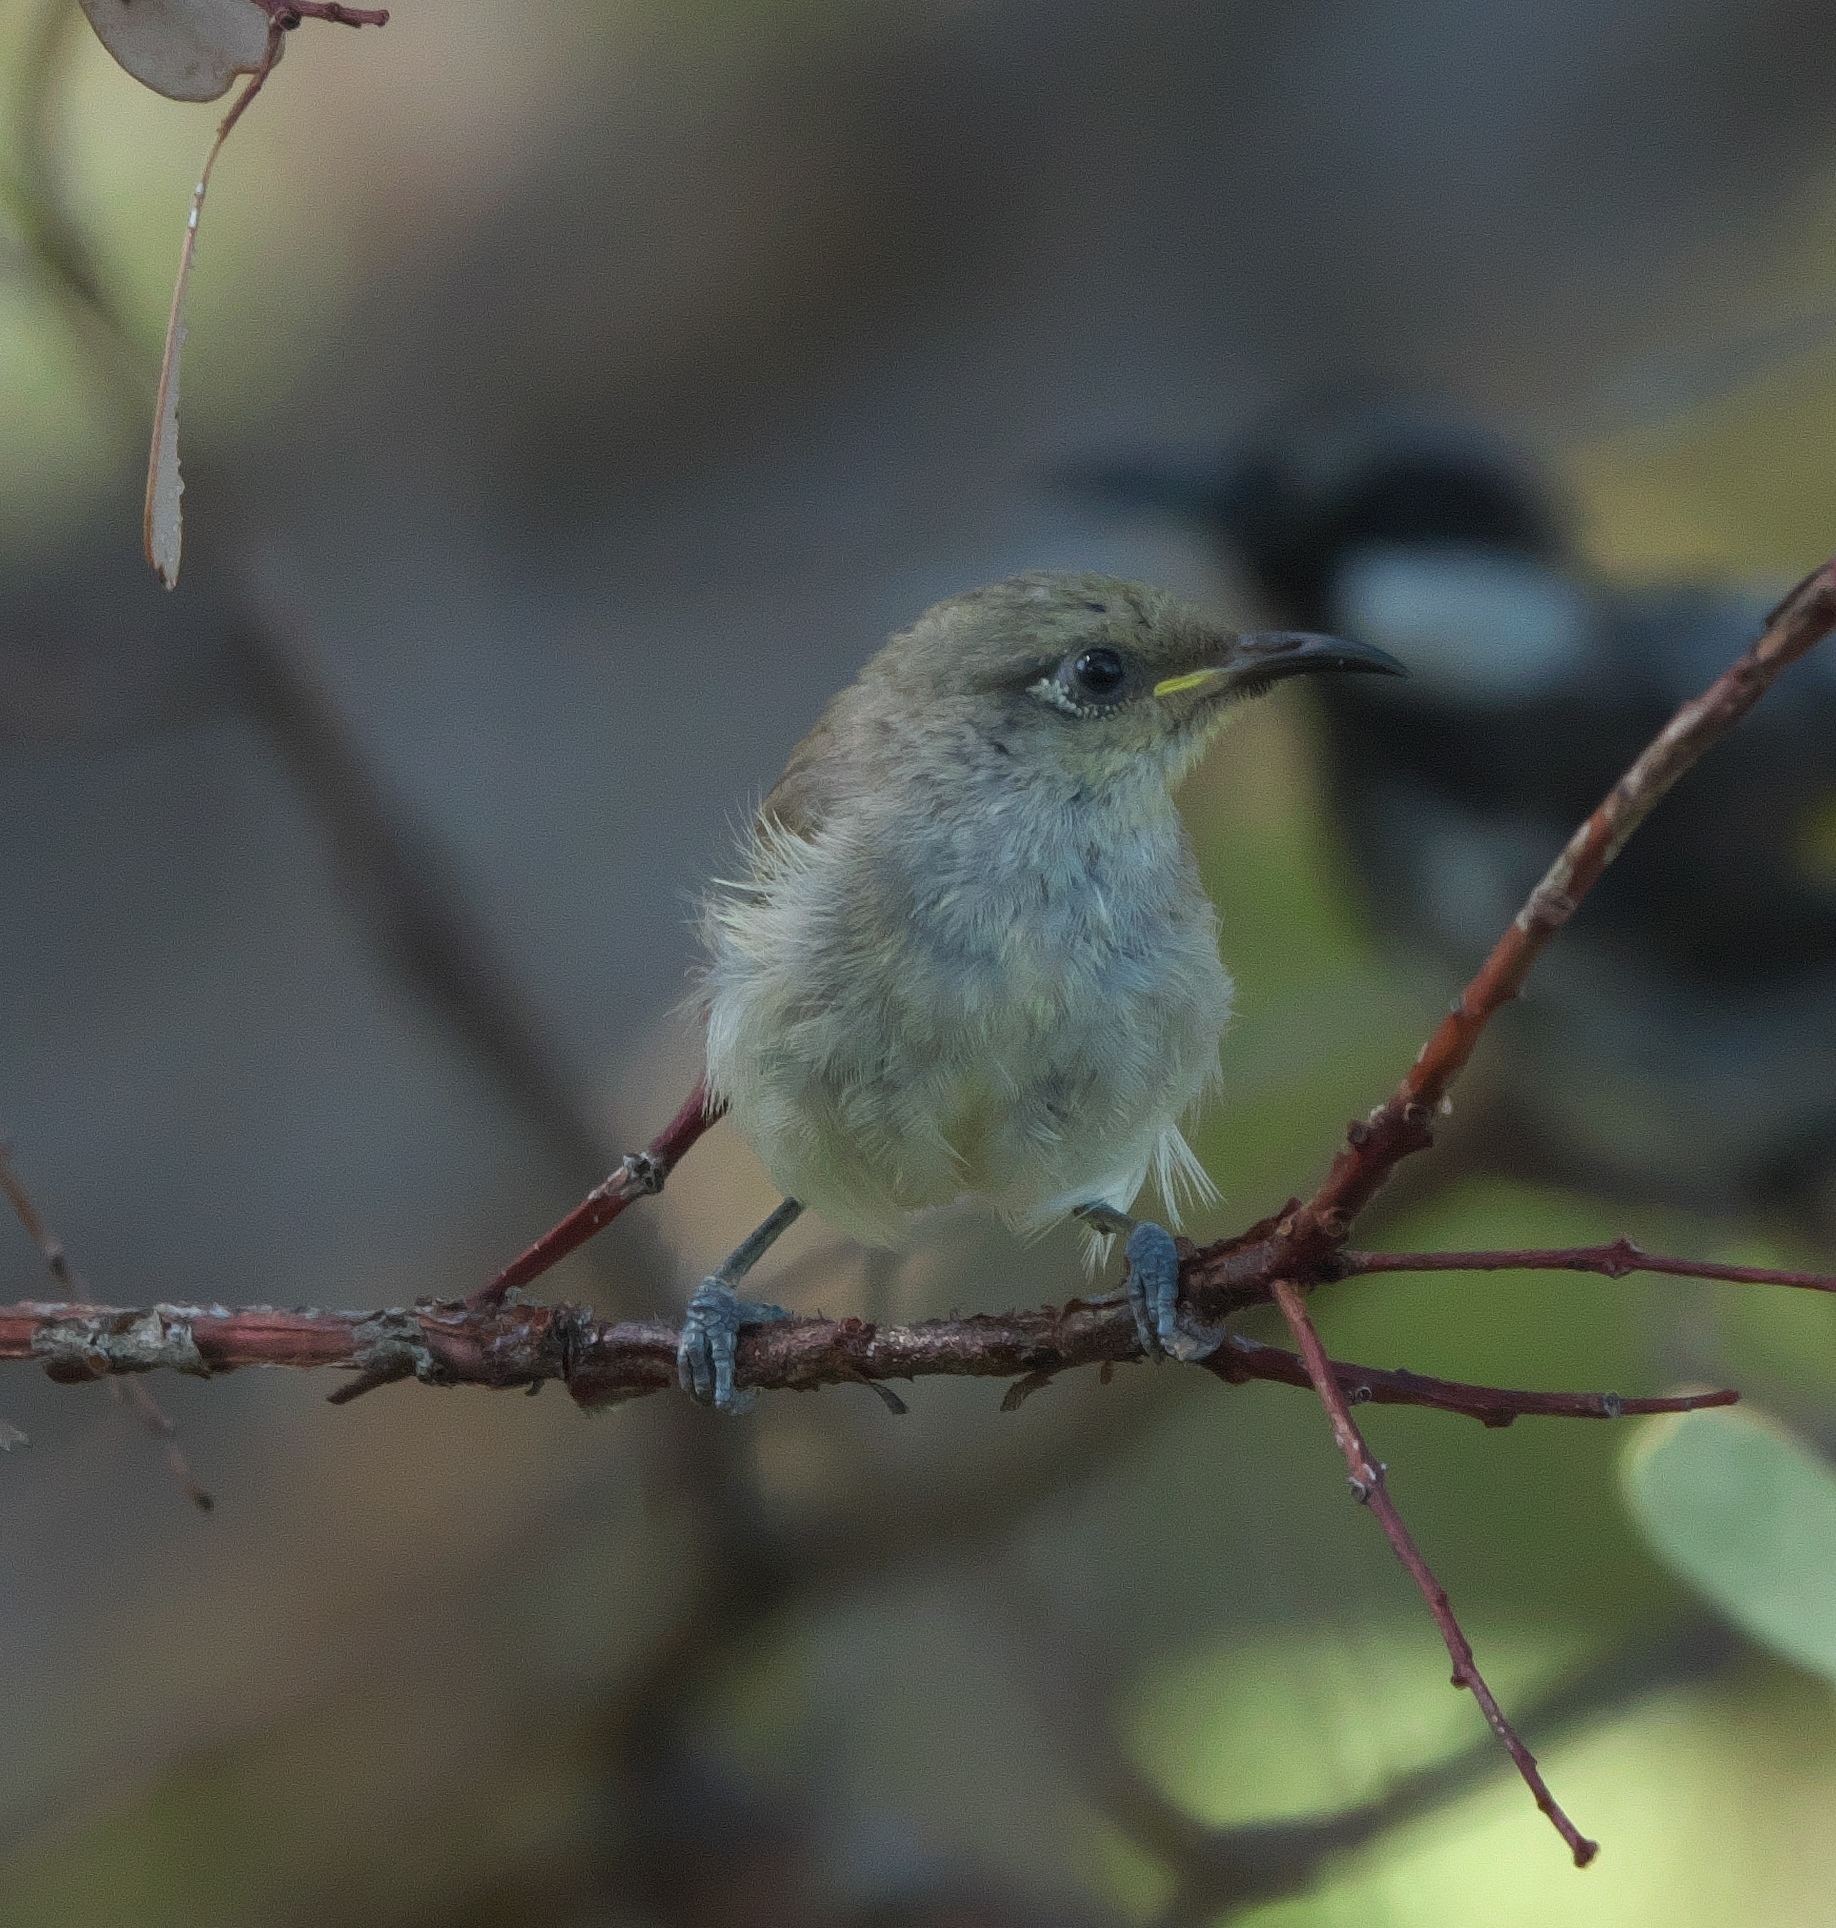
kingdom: Animalia
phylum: Chordata
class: Aves
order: Passeriformes
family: Meliphagidae
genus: Lichmera
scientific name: Lichmera indistincta
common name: Brown honeyeater
